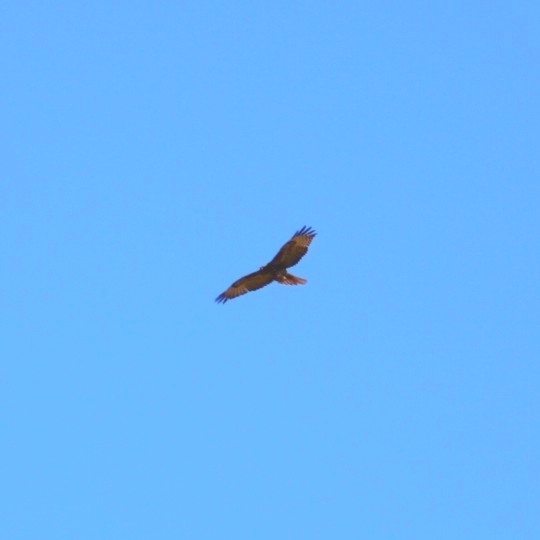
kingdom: Animalia
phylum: Chordata
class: Aves
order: Accipitriformes
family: Accipitridae
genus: Buteo
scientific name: Buteo jamaicensis
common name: Red-tailed hawk
